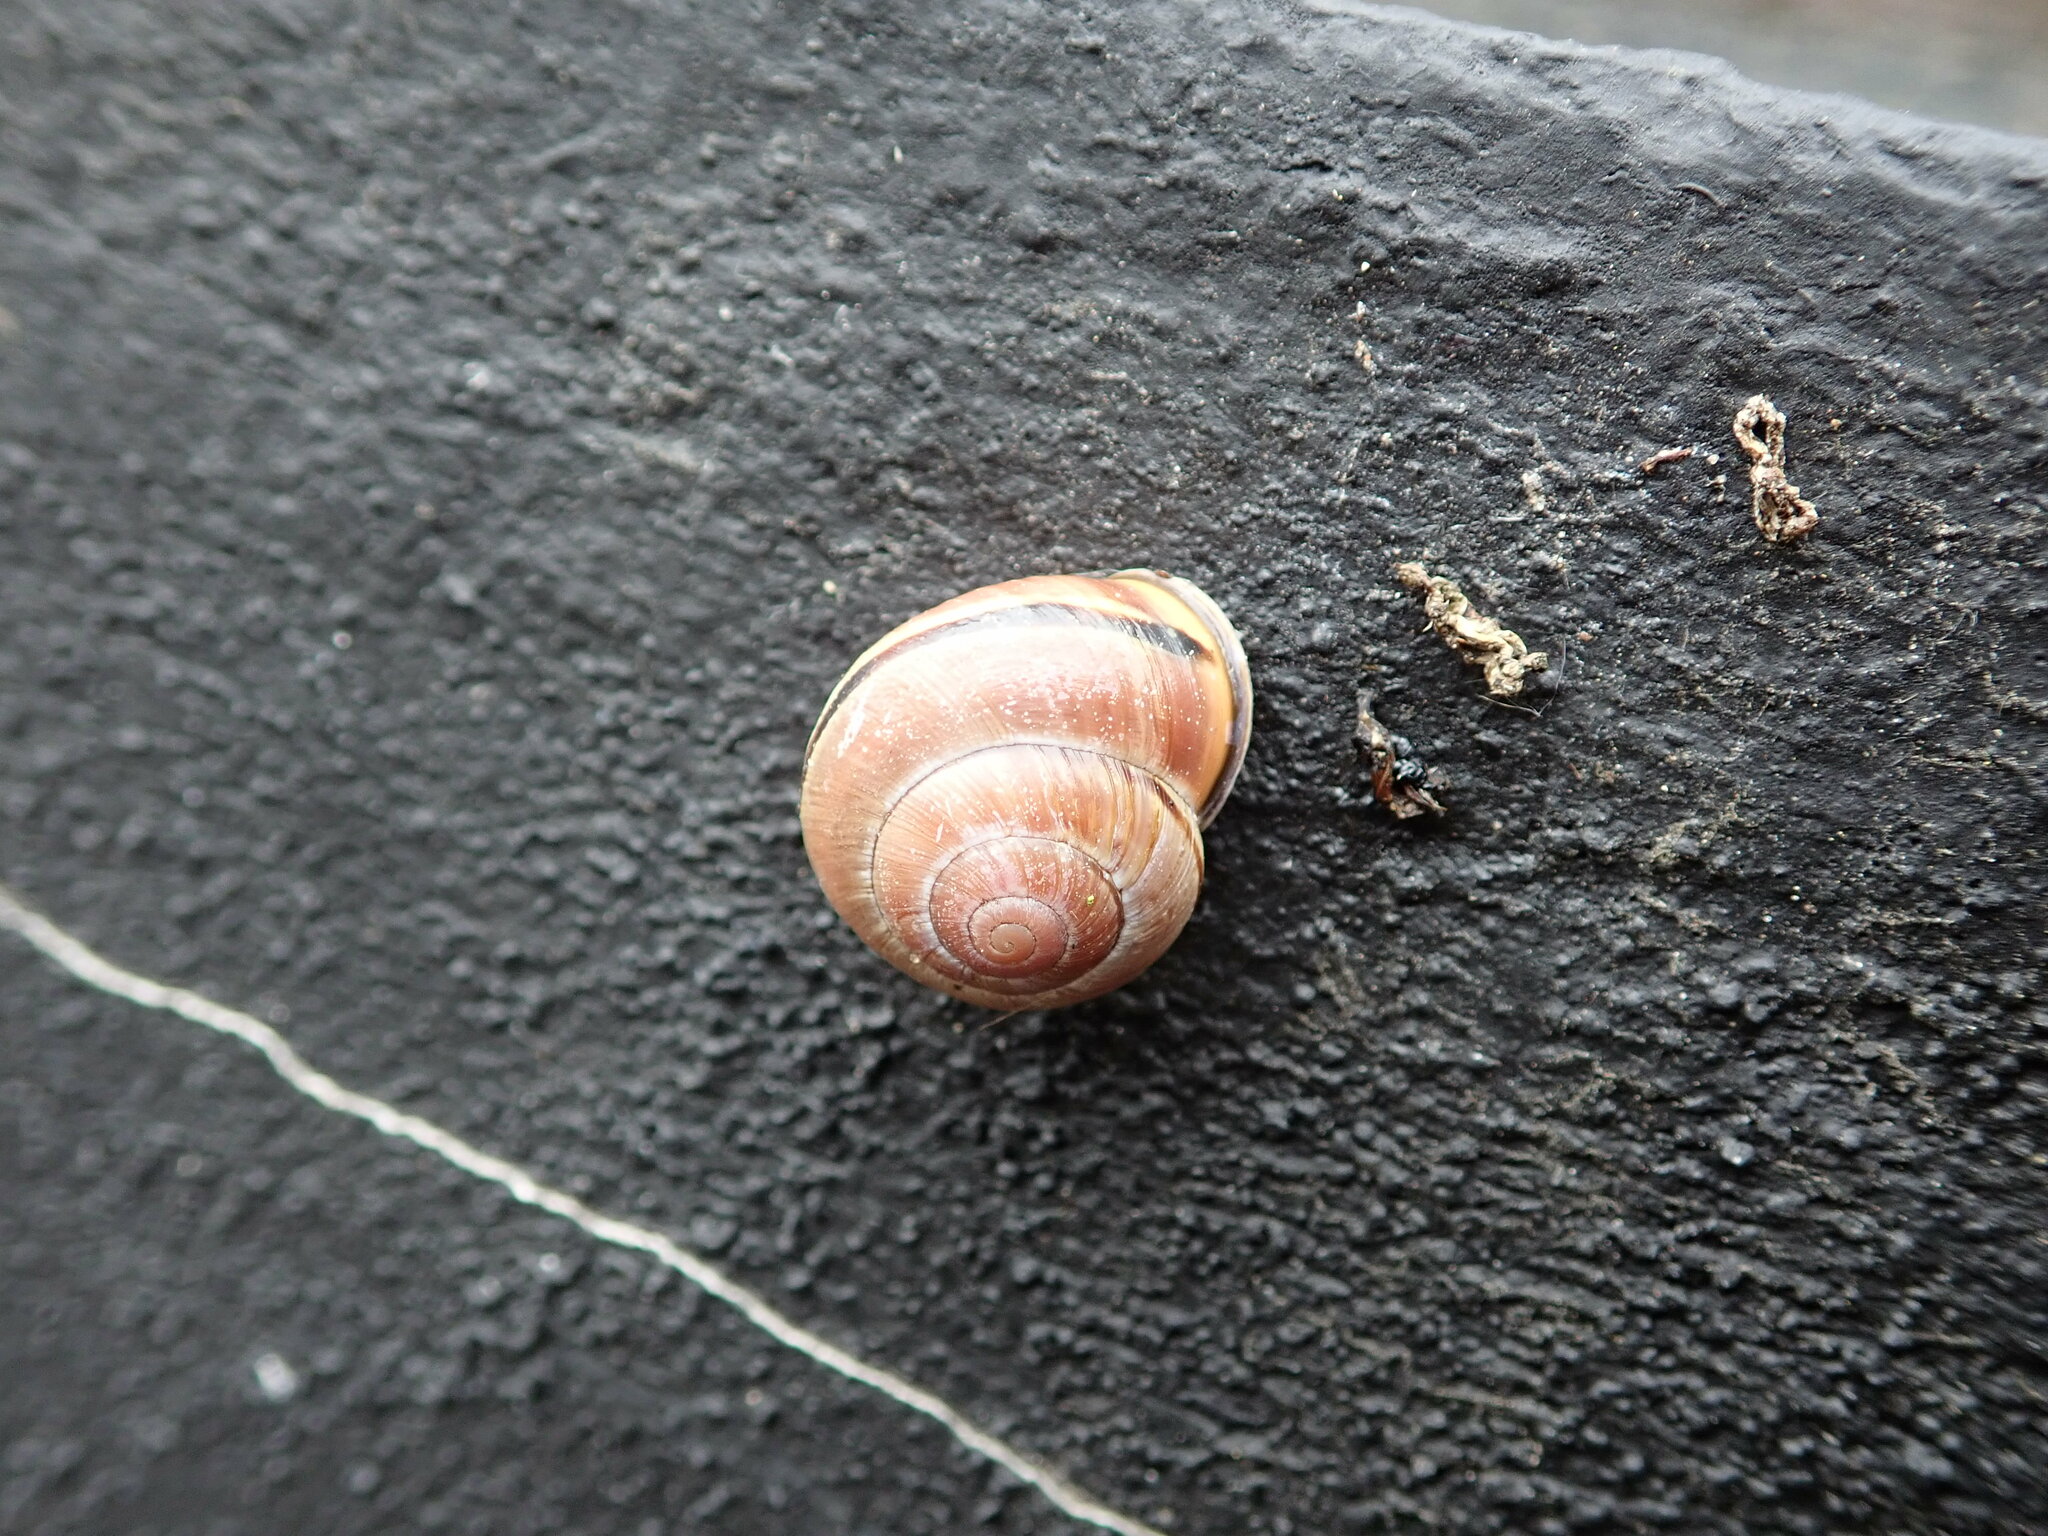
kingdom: Animalia
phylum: Mollusca
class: Gastropoda
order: Stylommatophora
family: Helicidae
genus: Cepaea
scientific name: Cepaea nemoralis
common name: Grovesnail
